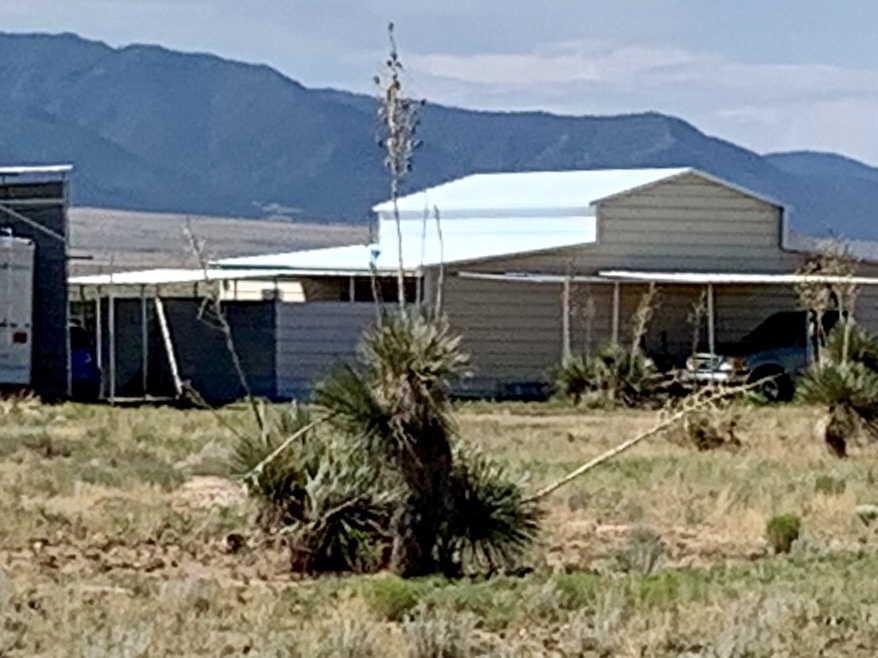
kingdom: Plantae
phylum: Tracheophyta
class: Liliopsida
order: Asparagales
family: Asparagaceae
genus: Yucca
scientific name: Yucca elata
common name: Palmella
